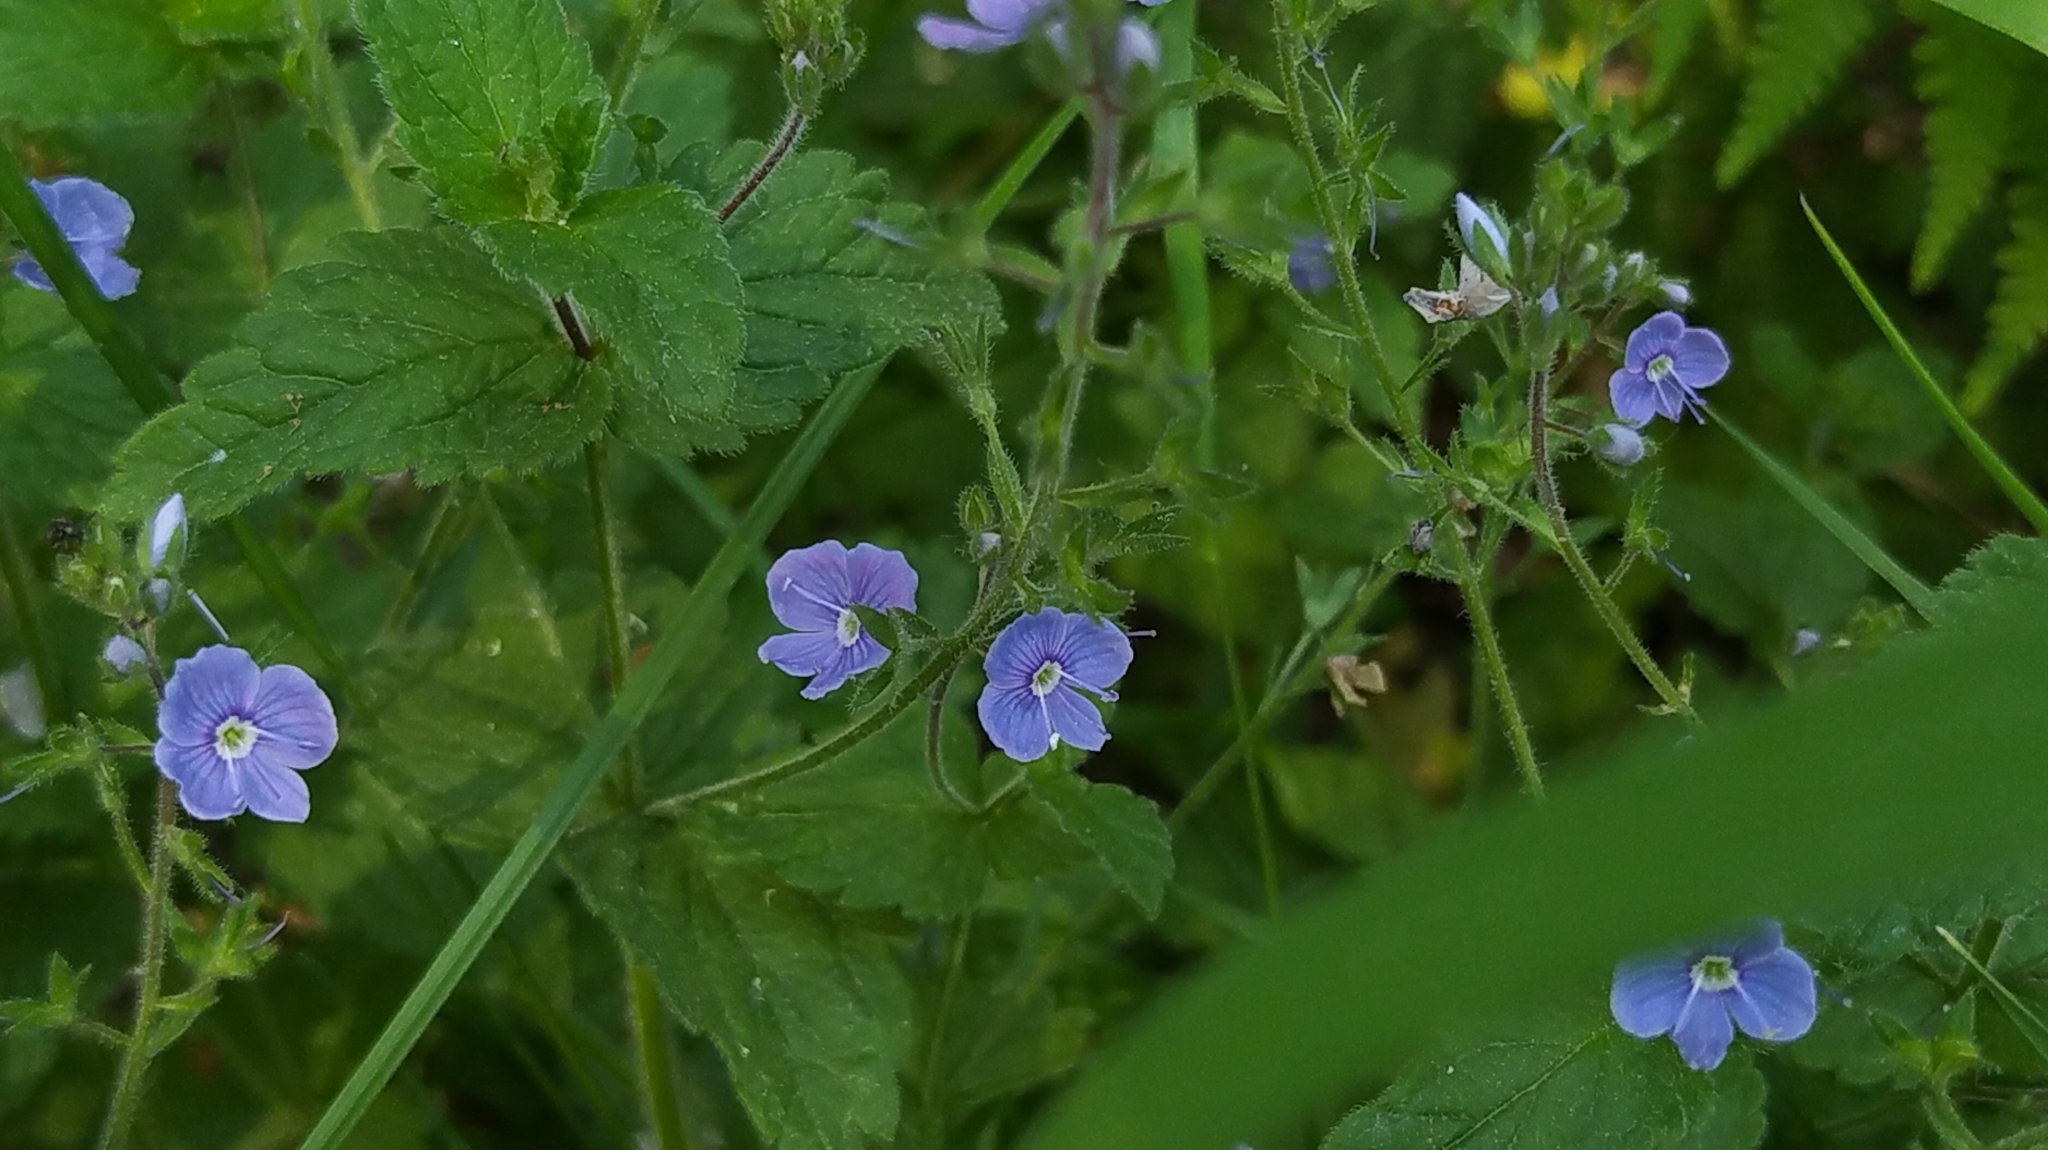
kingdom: Plantae
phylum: Tracheophyta
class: Magnoliopsida
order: Lamiales
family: Plantaginaceae
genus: Veronica
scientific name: Veronica chamaedrys
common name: Germander speedwell
